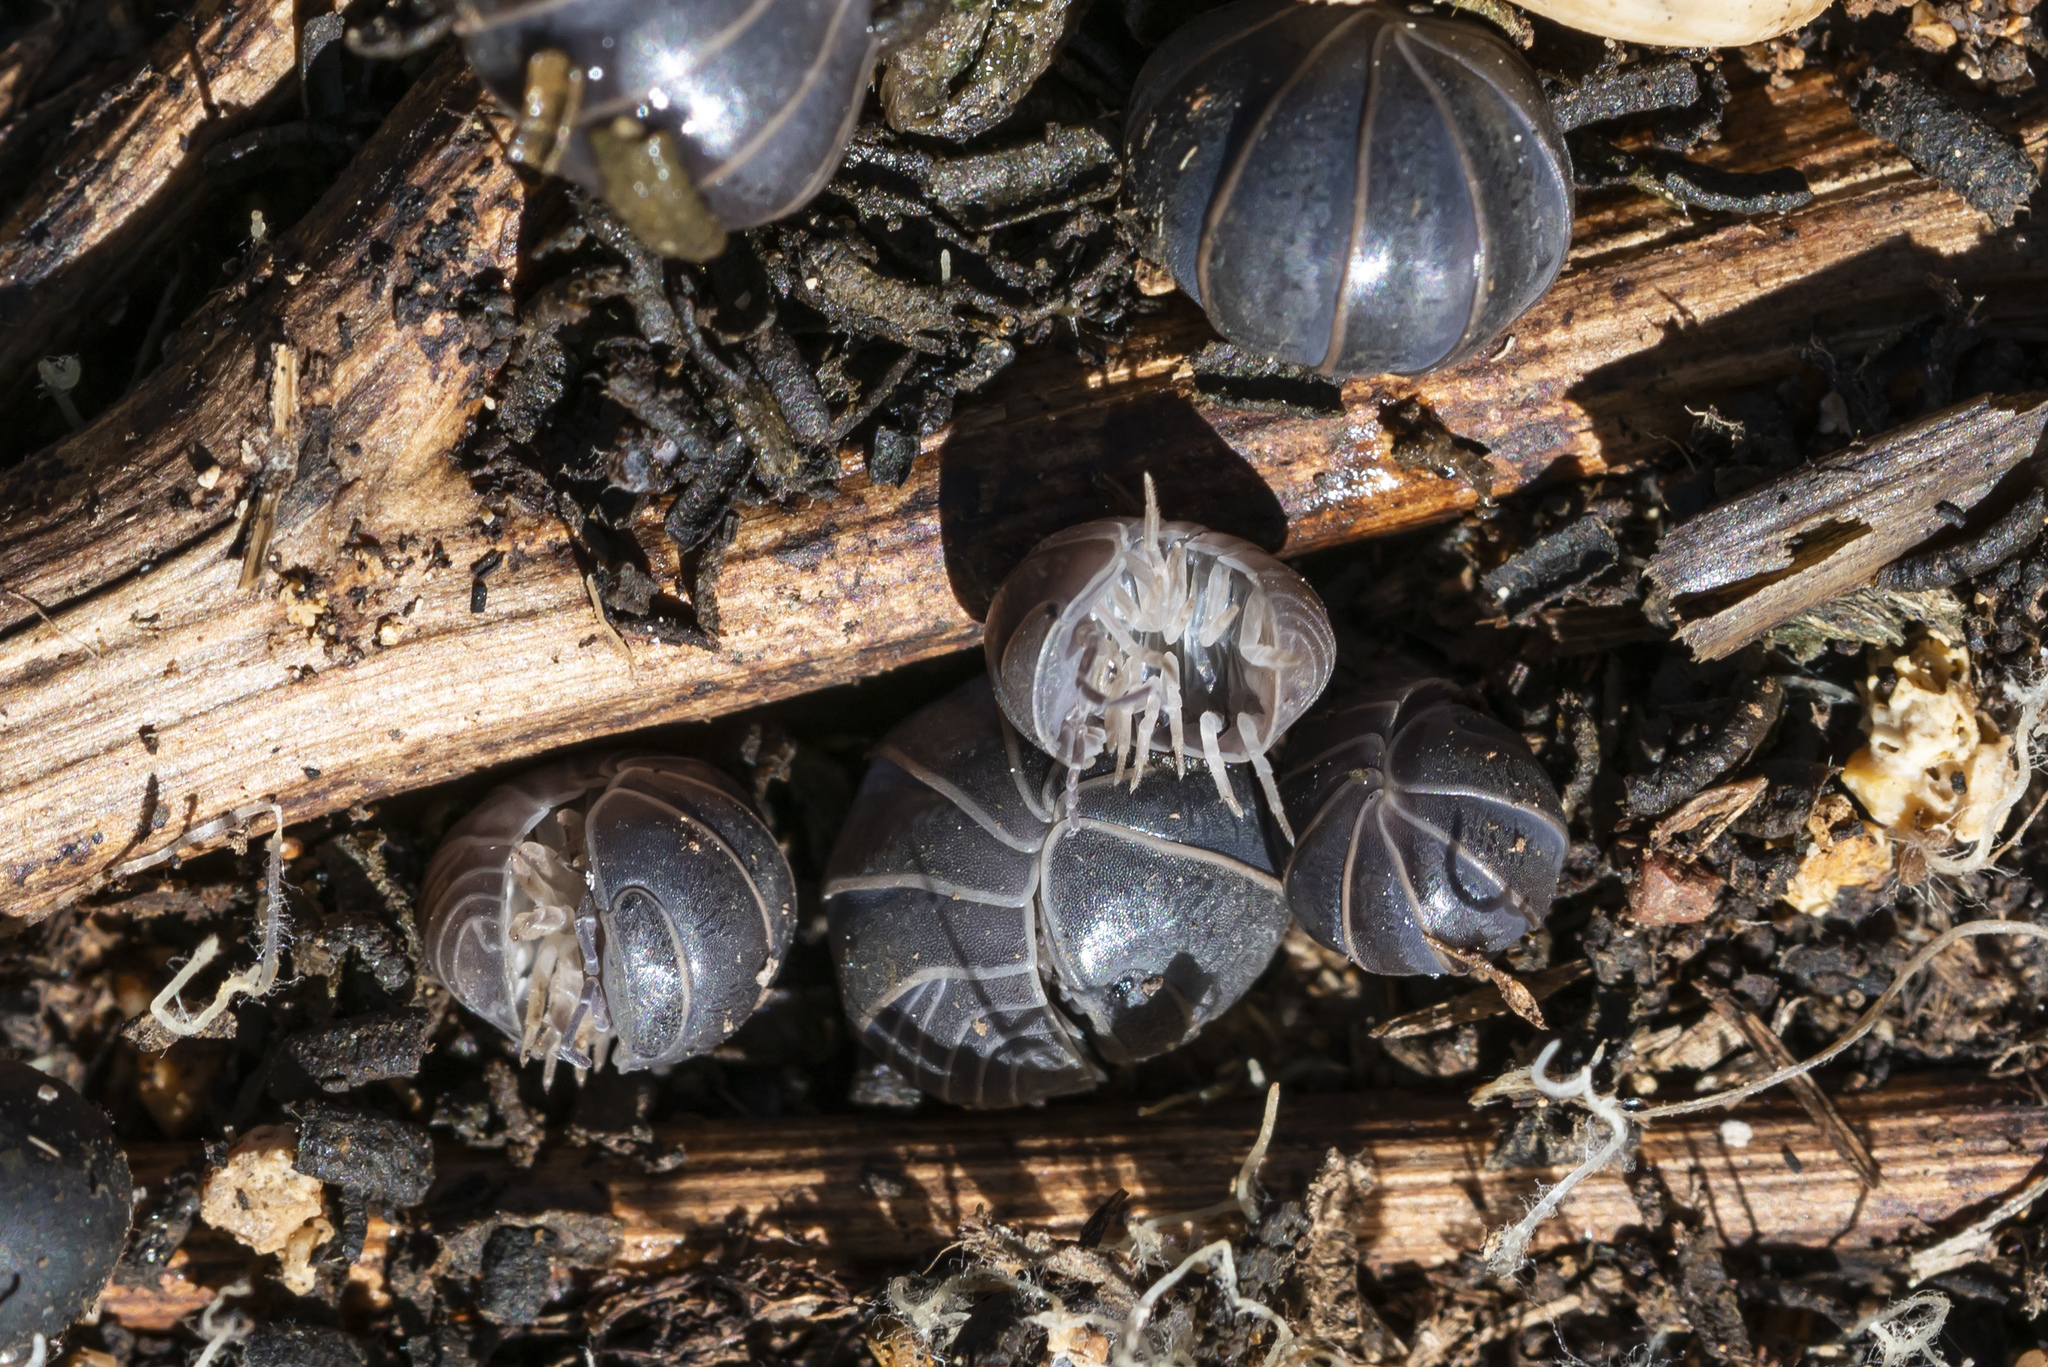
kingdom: Animalia
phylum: Arthropoda
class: Malacostraca
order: Isopoda
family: Armadillidae
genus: Armadillo
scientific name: Armadillo officinalis
